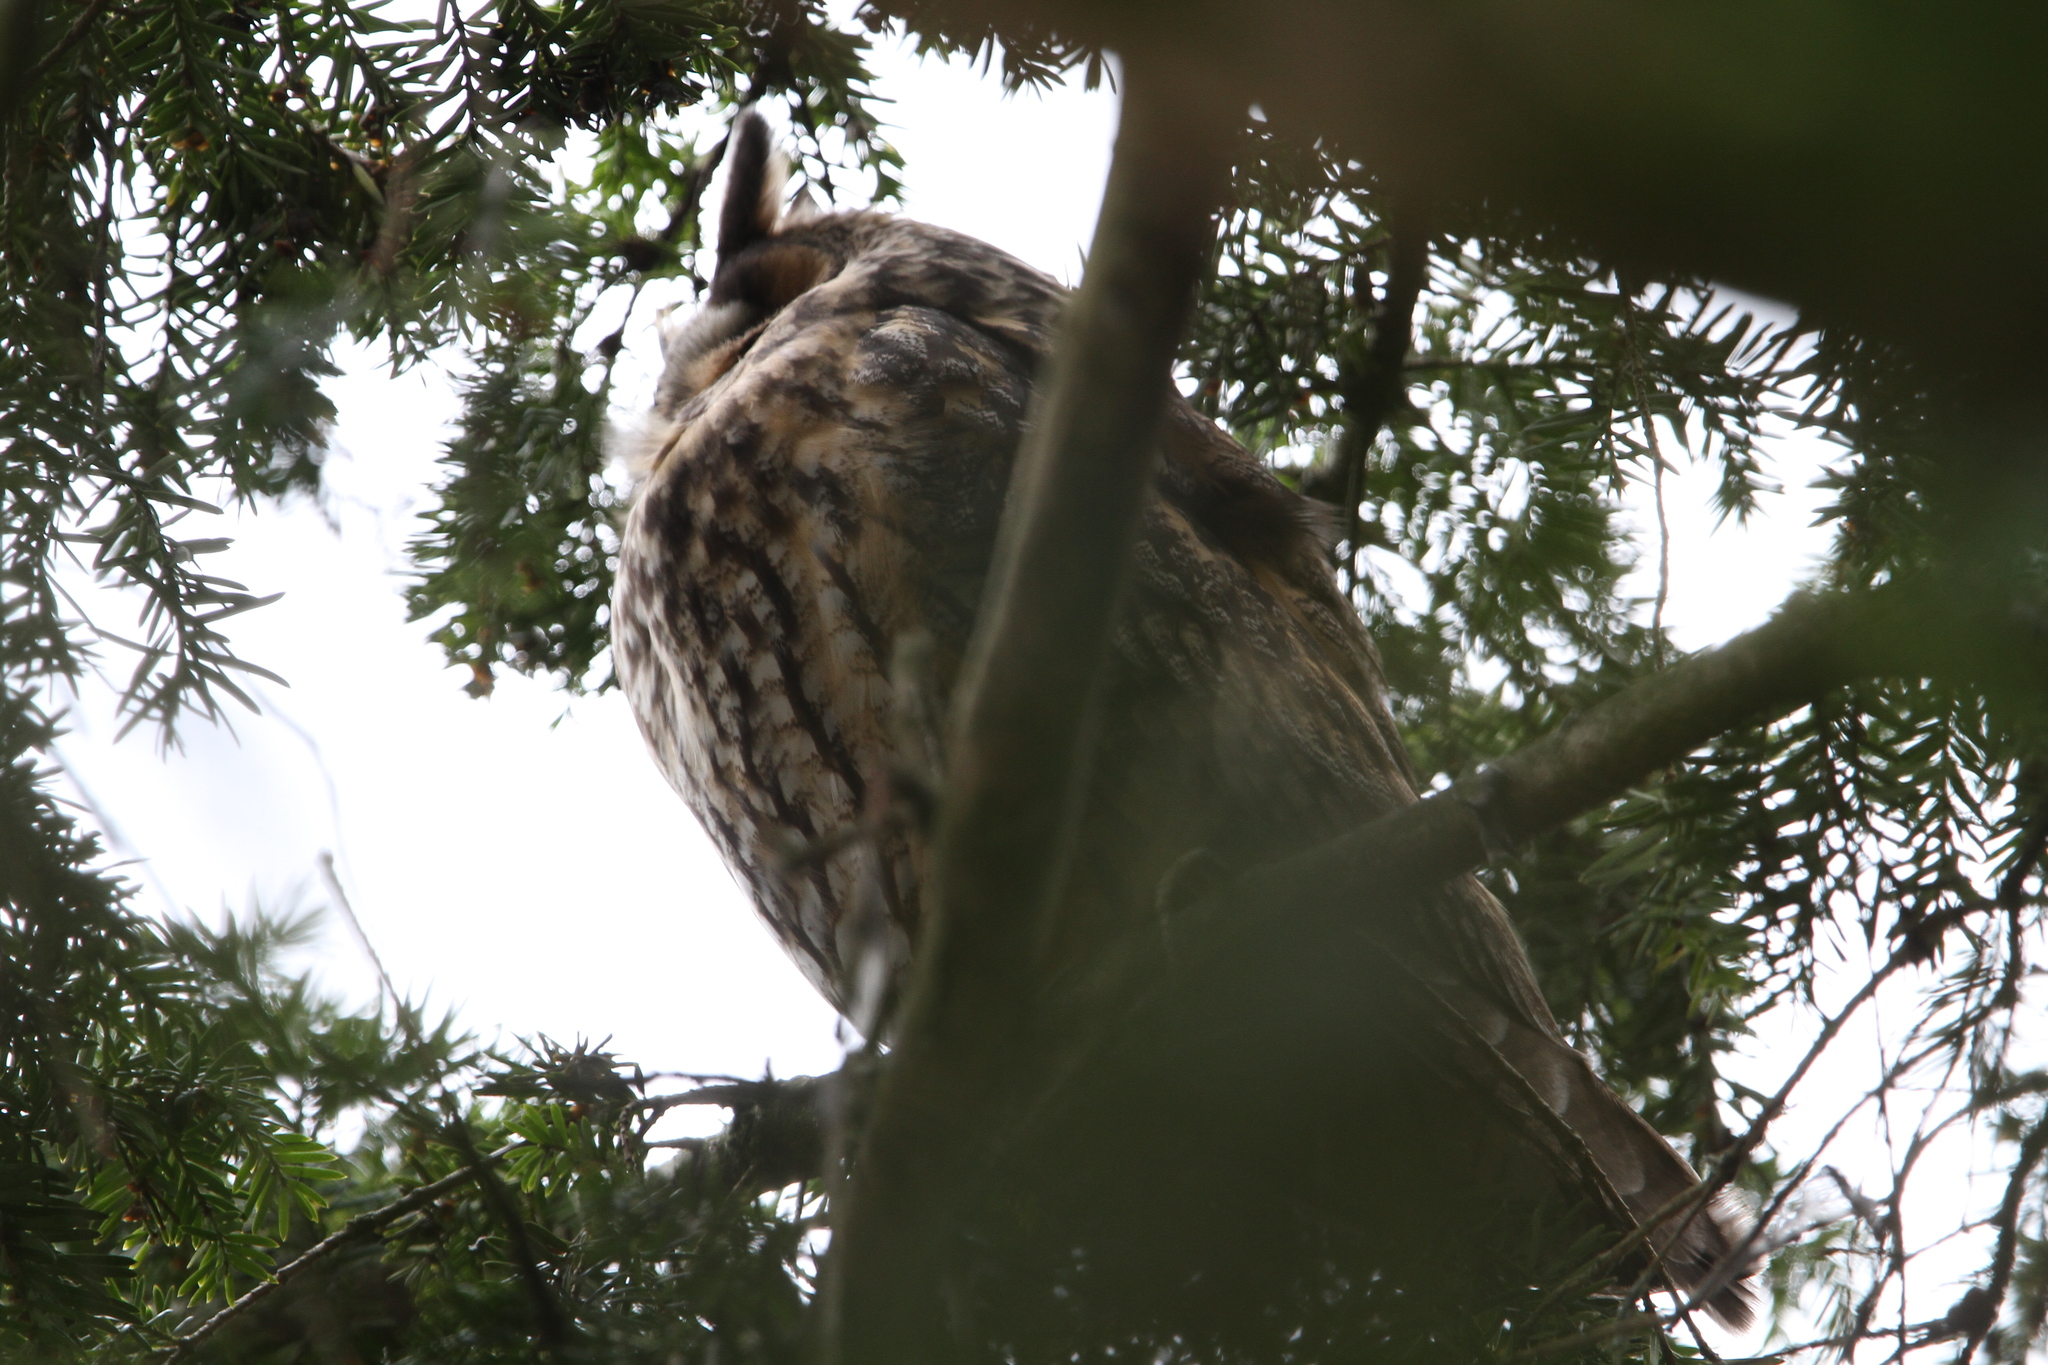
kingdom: Animalia
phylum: Chordata
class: Aves
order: Strigiformes
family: Strigidae
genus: Asio
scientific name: Asio otus
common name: Long-eared owl
